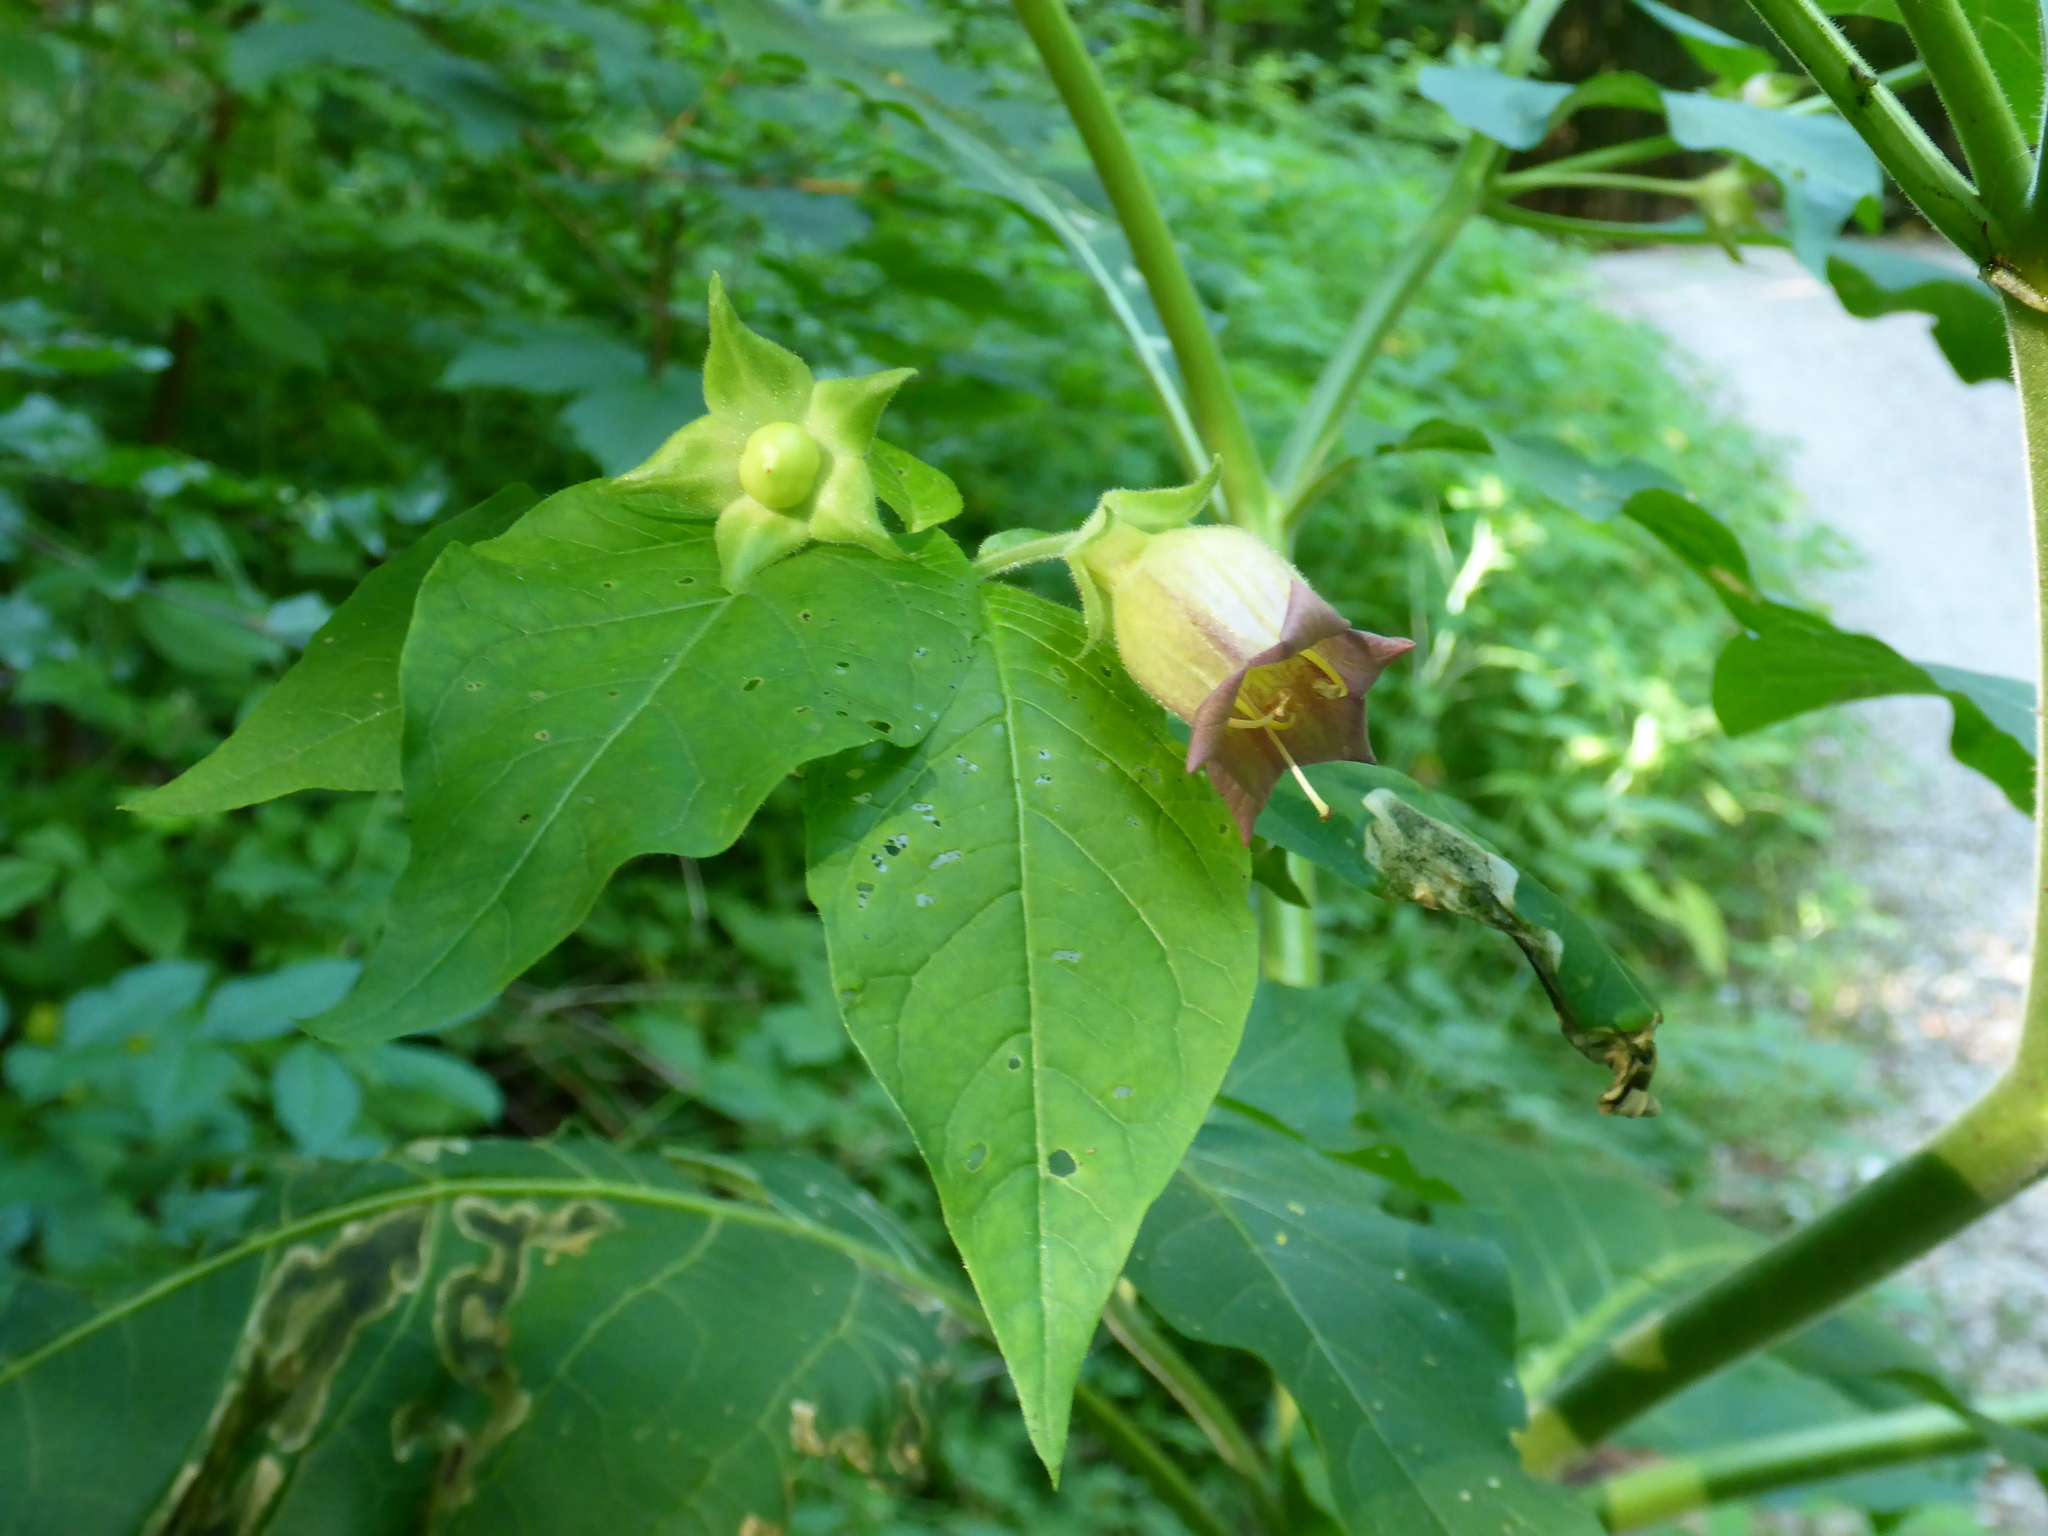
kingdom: Plantae
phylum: Tracheophyta
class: Magnoliopsida
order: Solanales
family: Solanaceae
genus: Atropa
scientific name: Atropa belladonna
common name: Deadly nightshade
